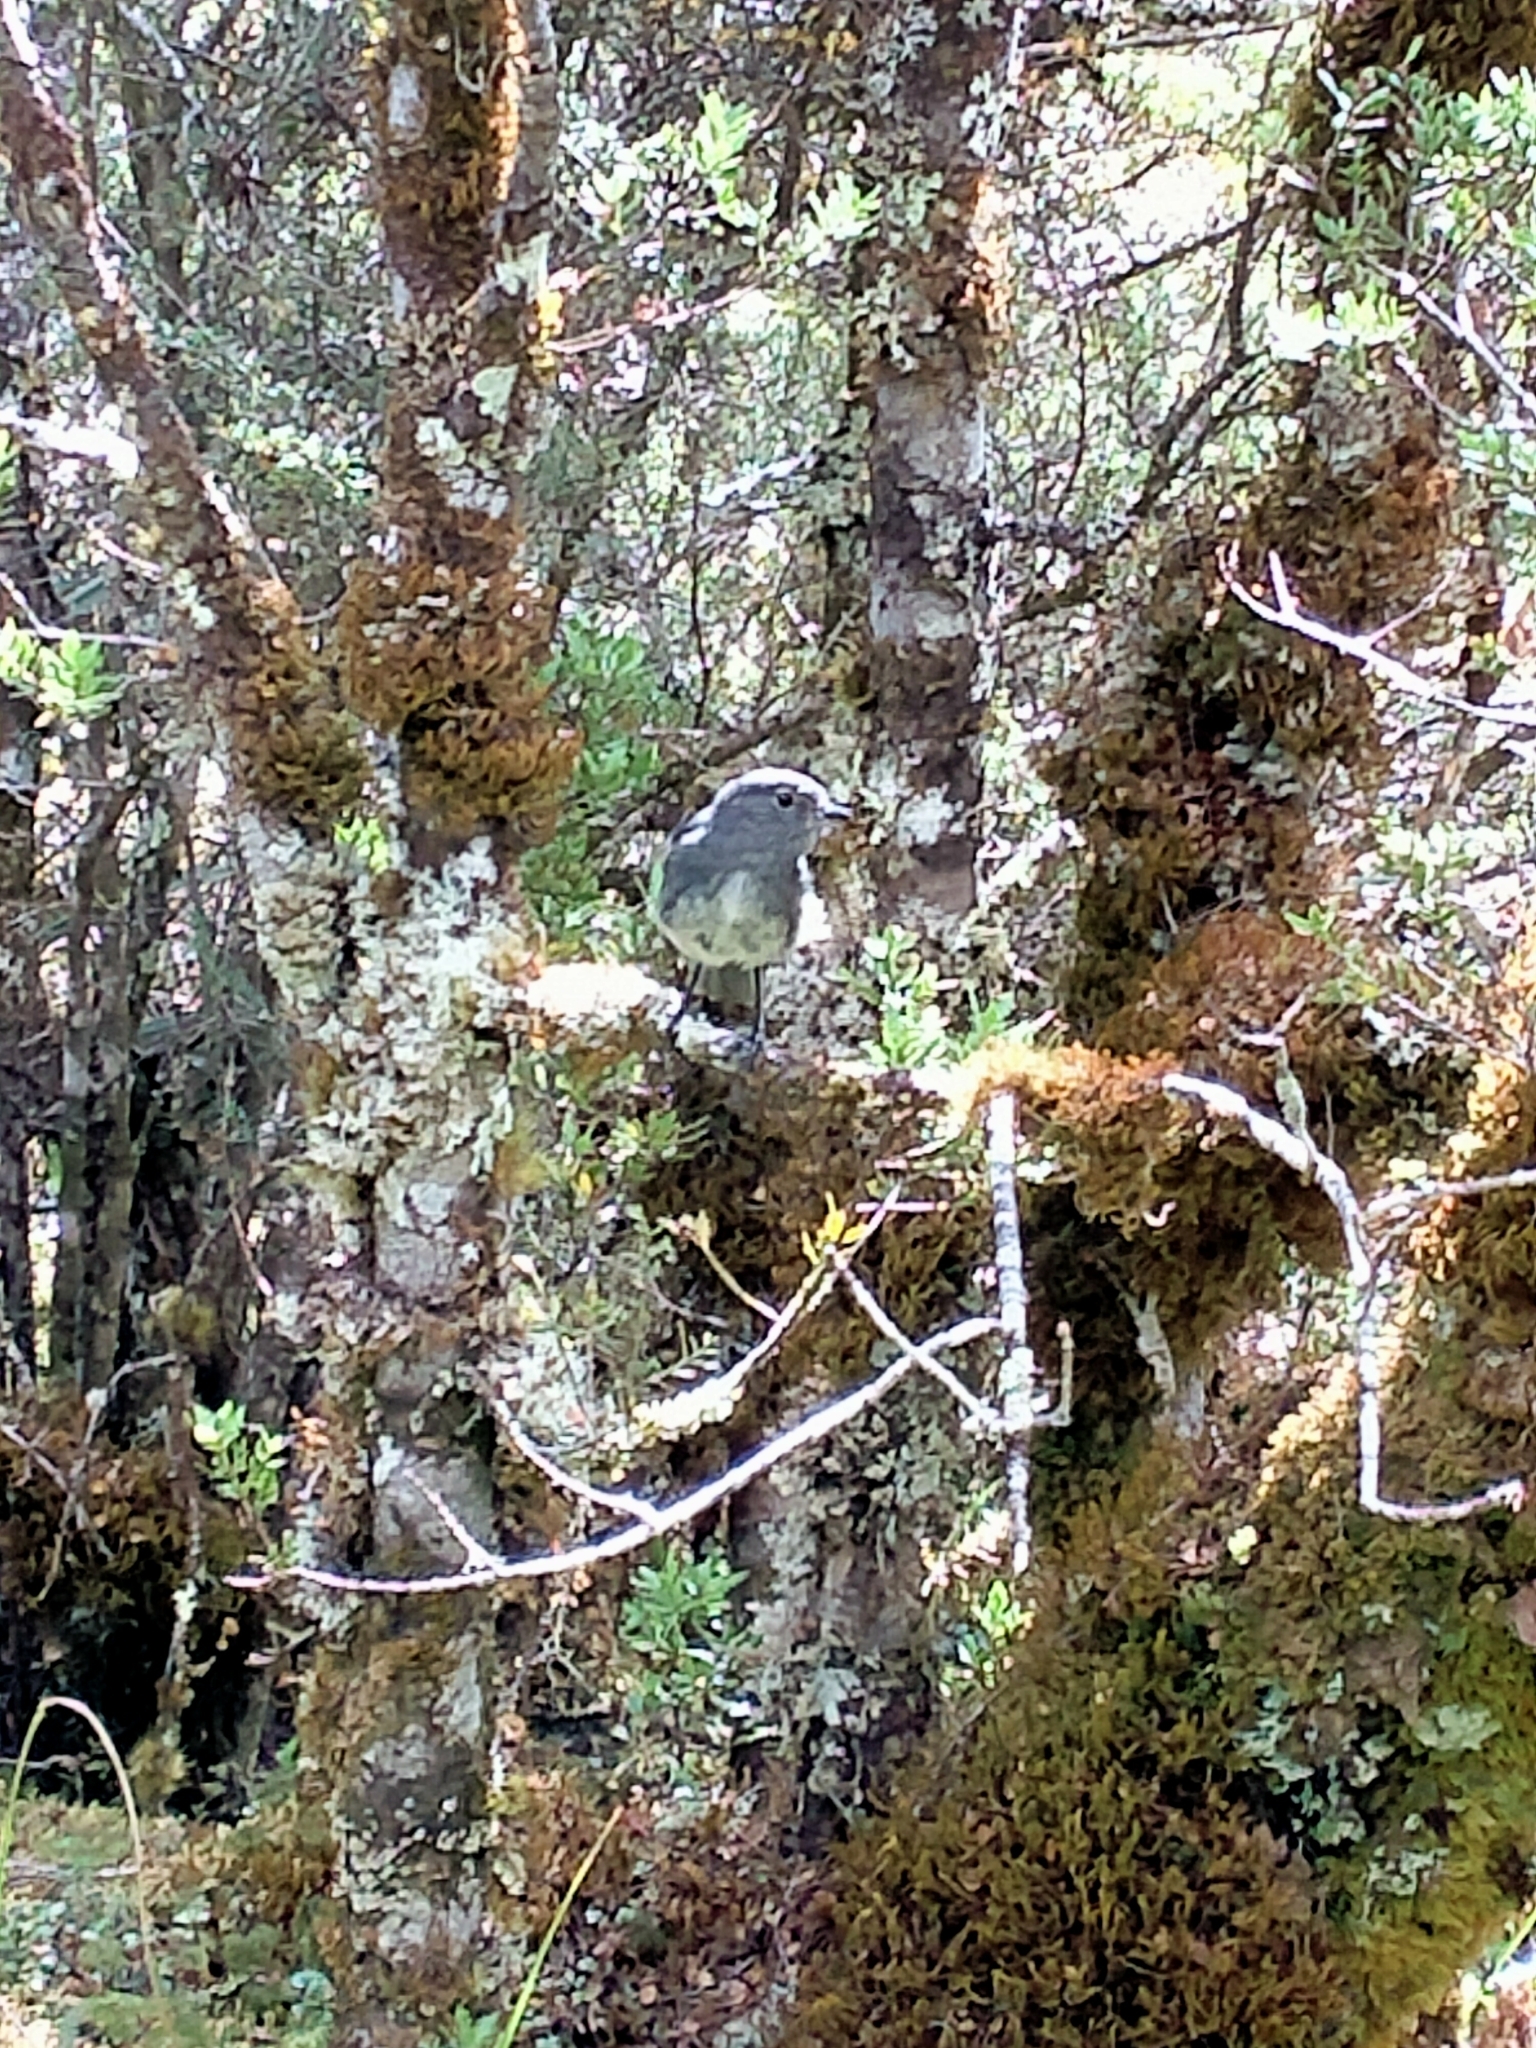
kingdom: Animalia
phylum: Chordata
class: Aves
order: Passeriformes
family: Petroicidae
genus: Petroica
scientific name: Petroica australis
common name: New zealand robin
